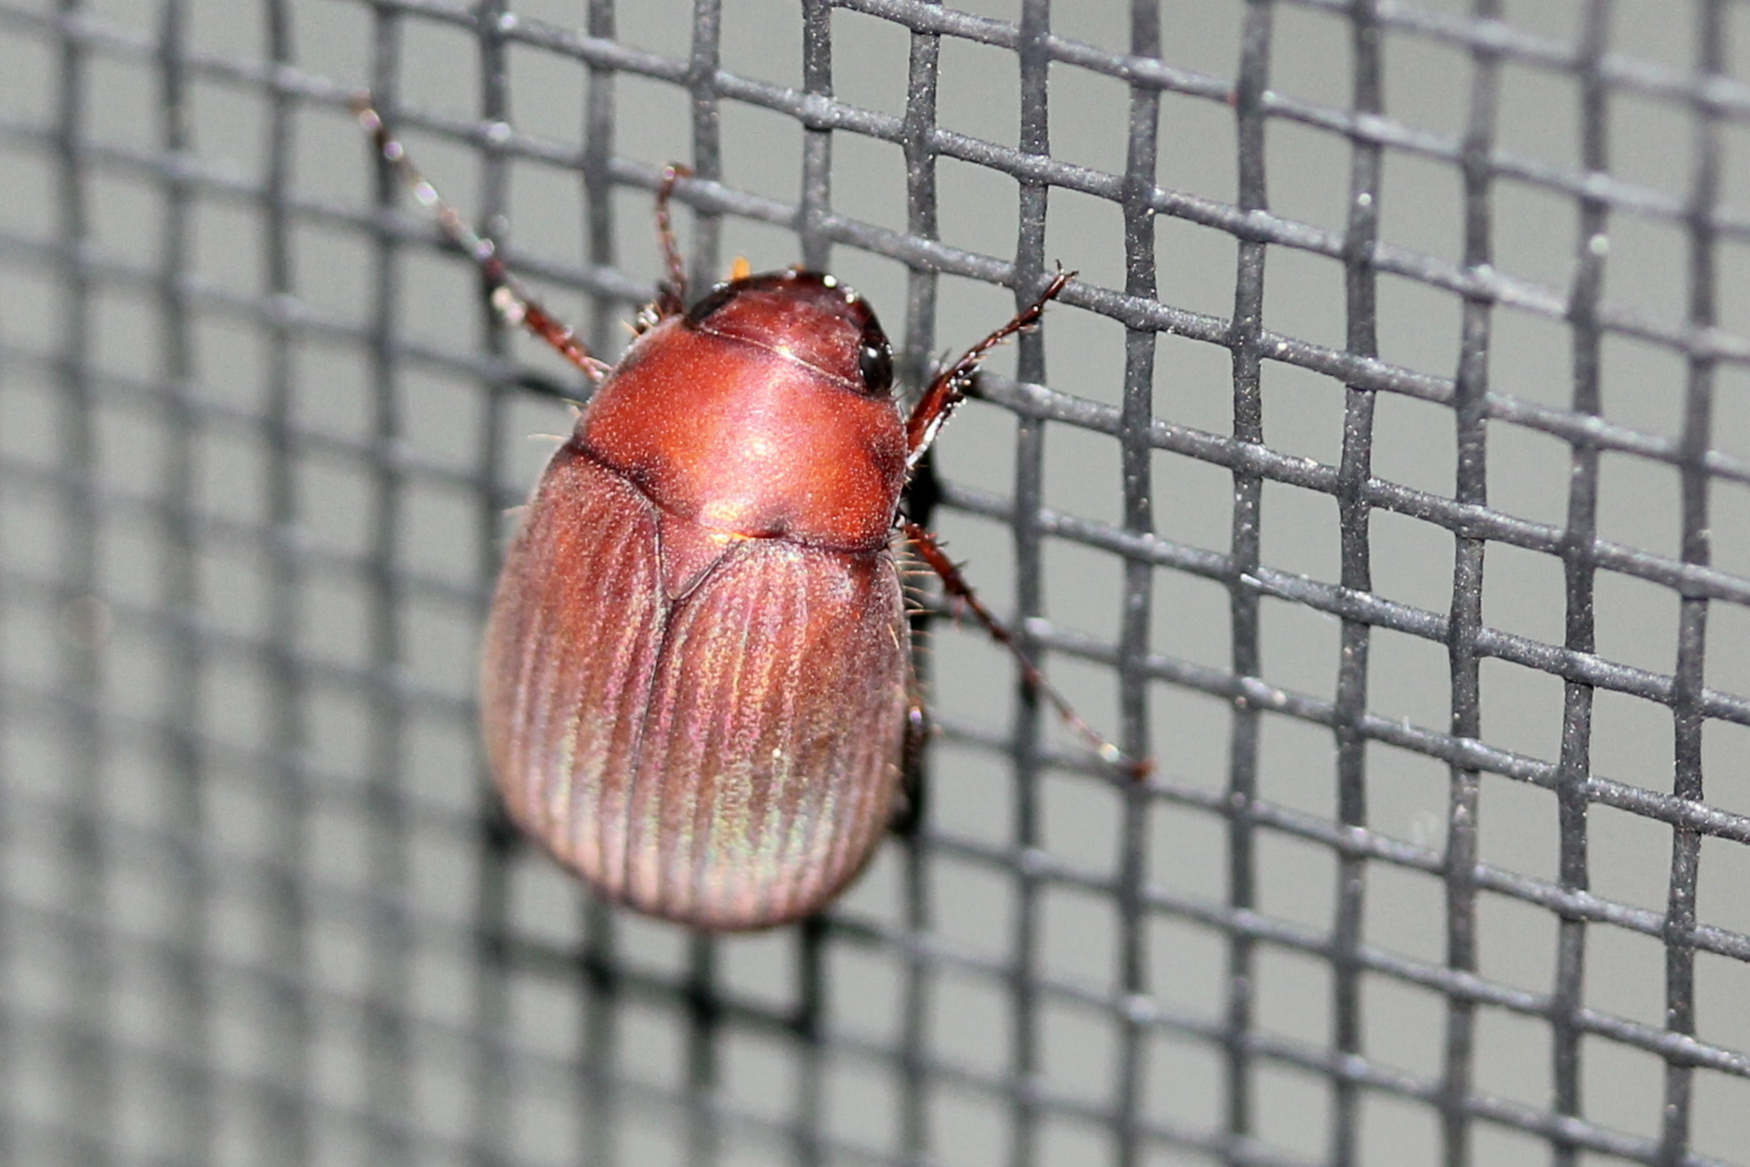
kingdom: Animalia
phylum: Arthropoda
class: Insecta
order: Coleoptera
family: Scarabaeidae
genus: Maladera
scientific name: Maladera formosae
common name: Asiatic garden beetle
